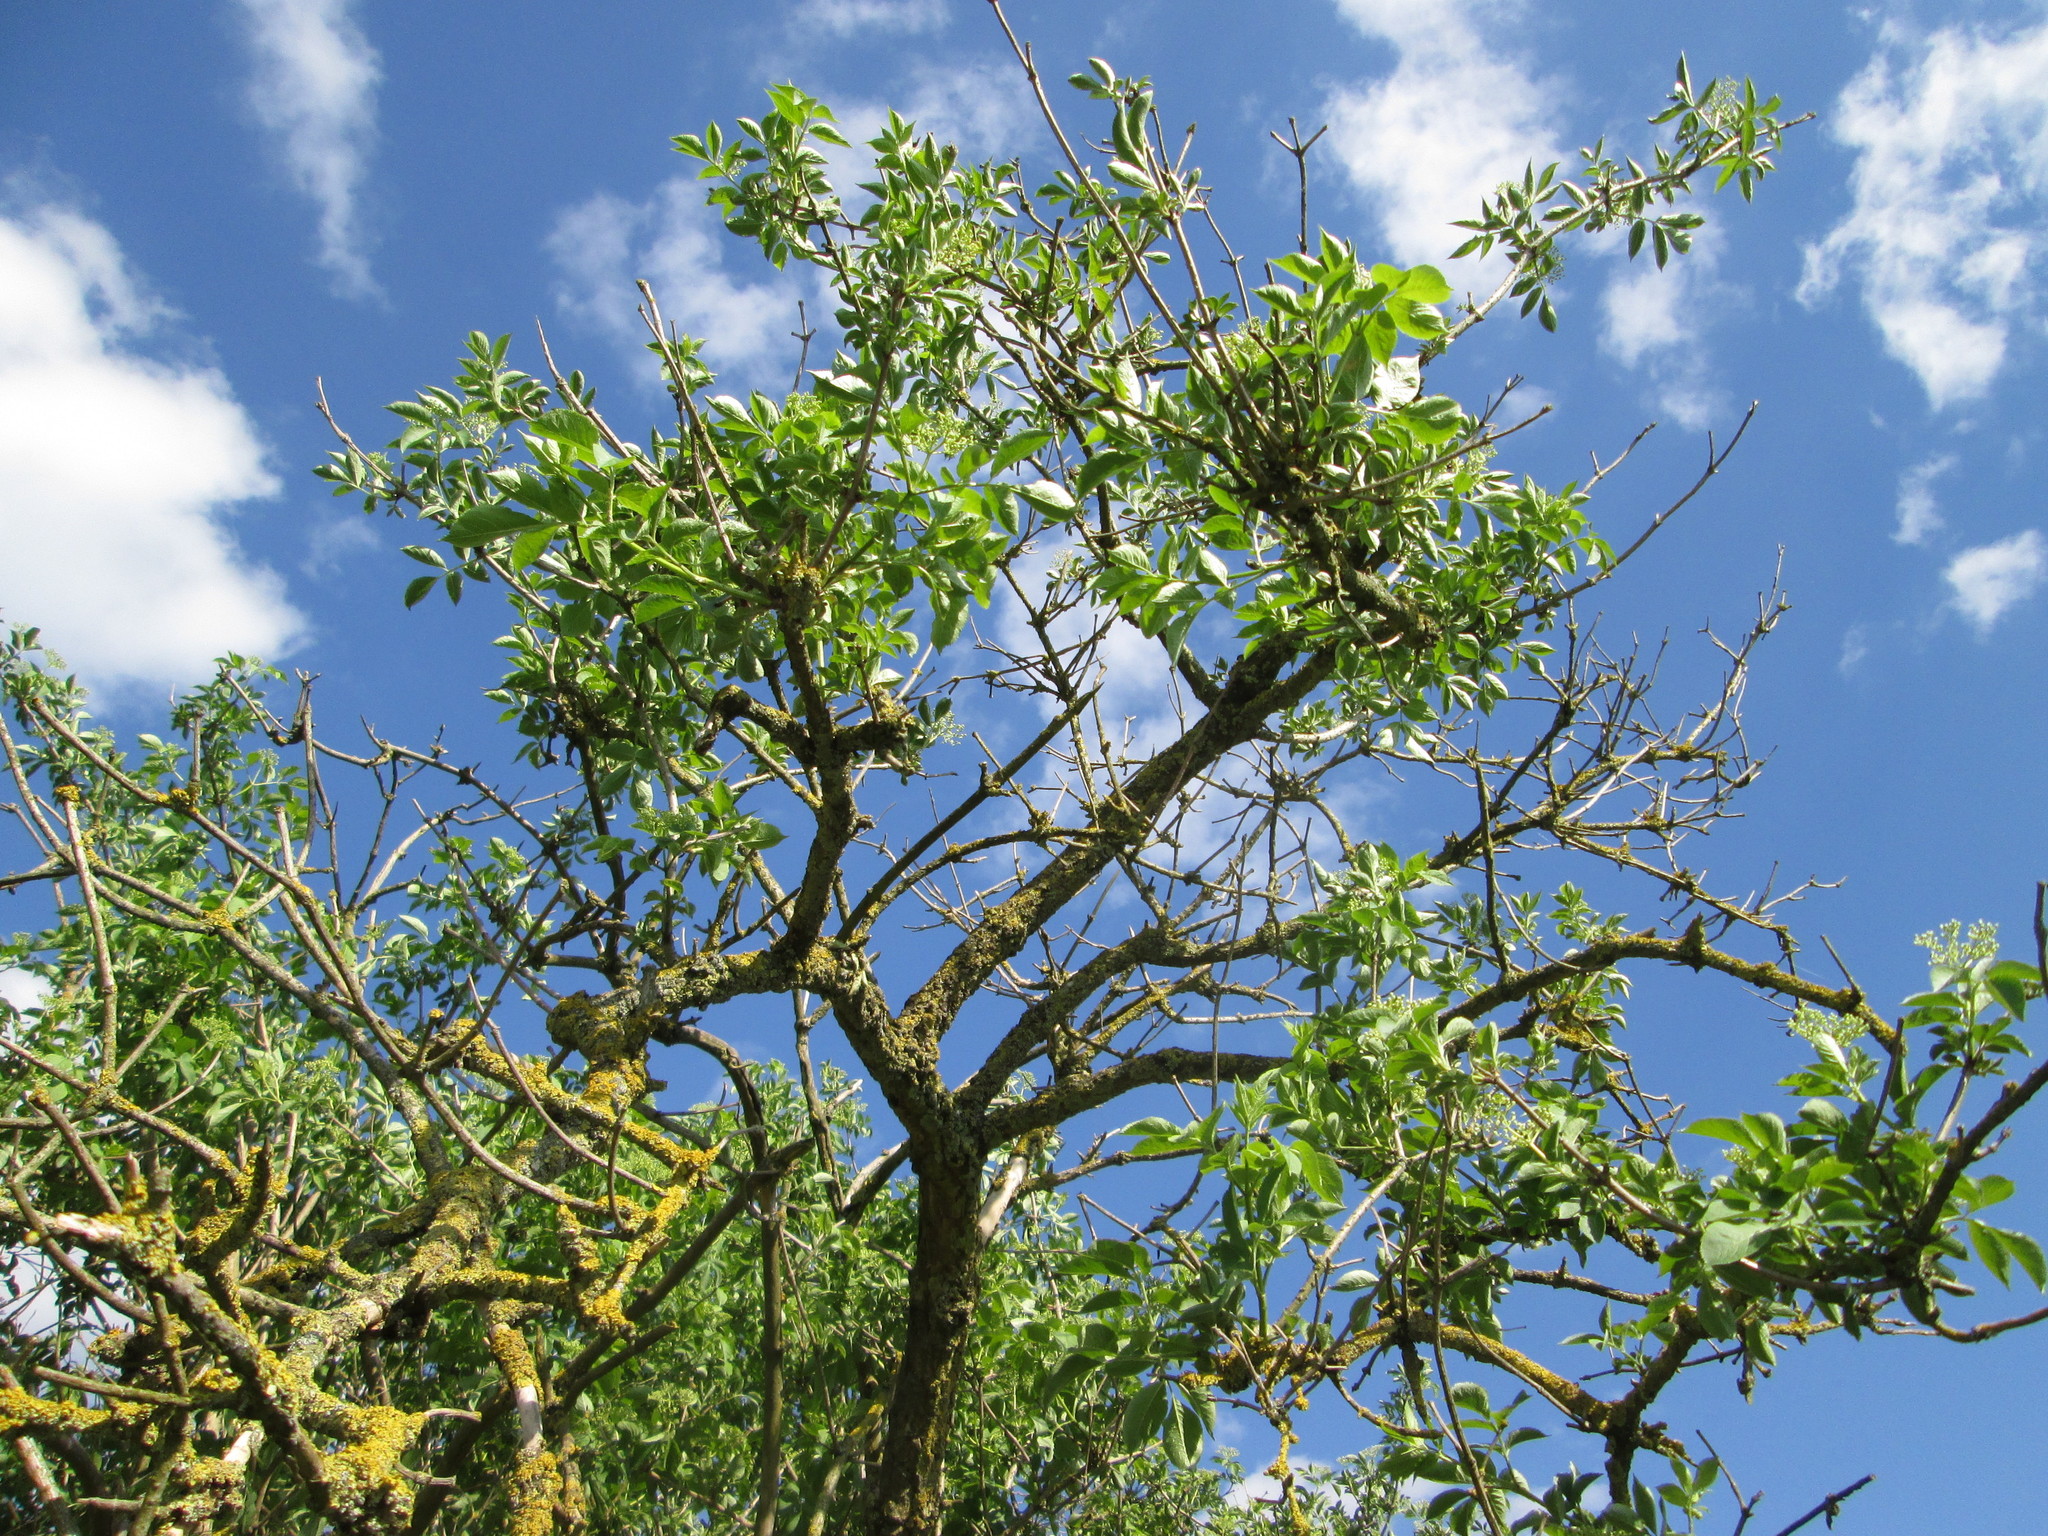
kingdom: Plantae
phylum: Tracheophyta
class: Magnoliopsida
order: Dipsacales
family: Viburnaceae
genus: Sambucus
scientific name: Sambucus nigra
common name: Elder
